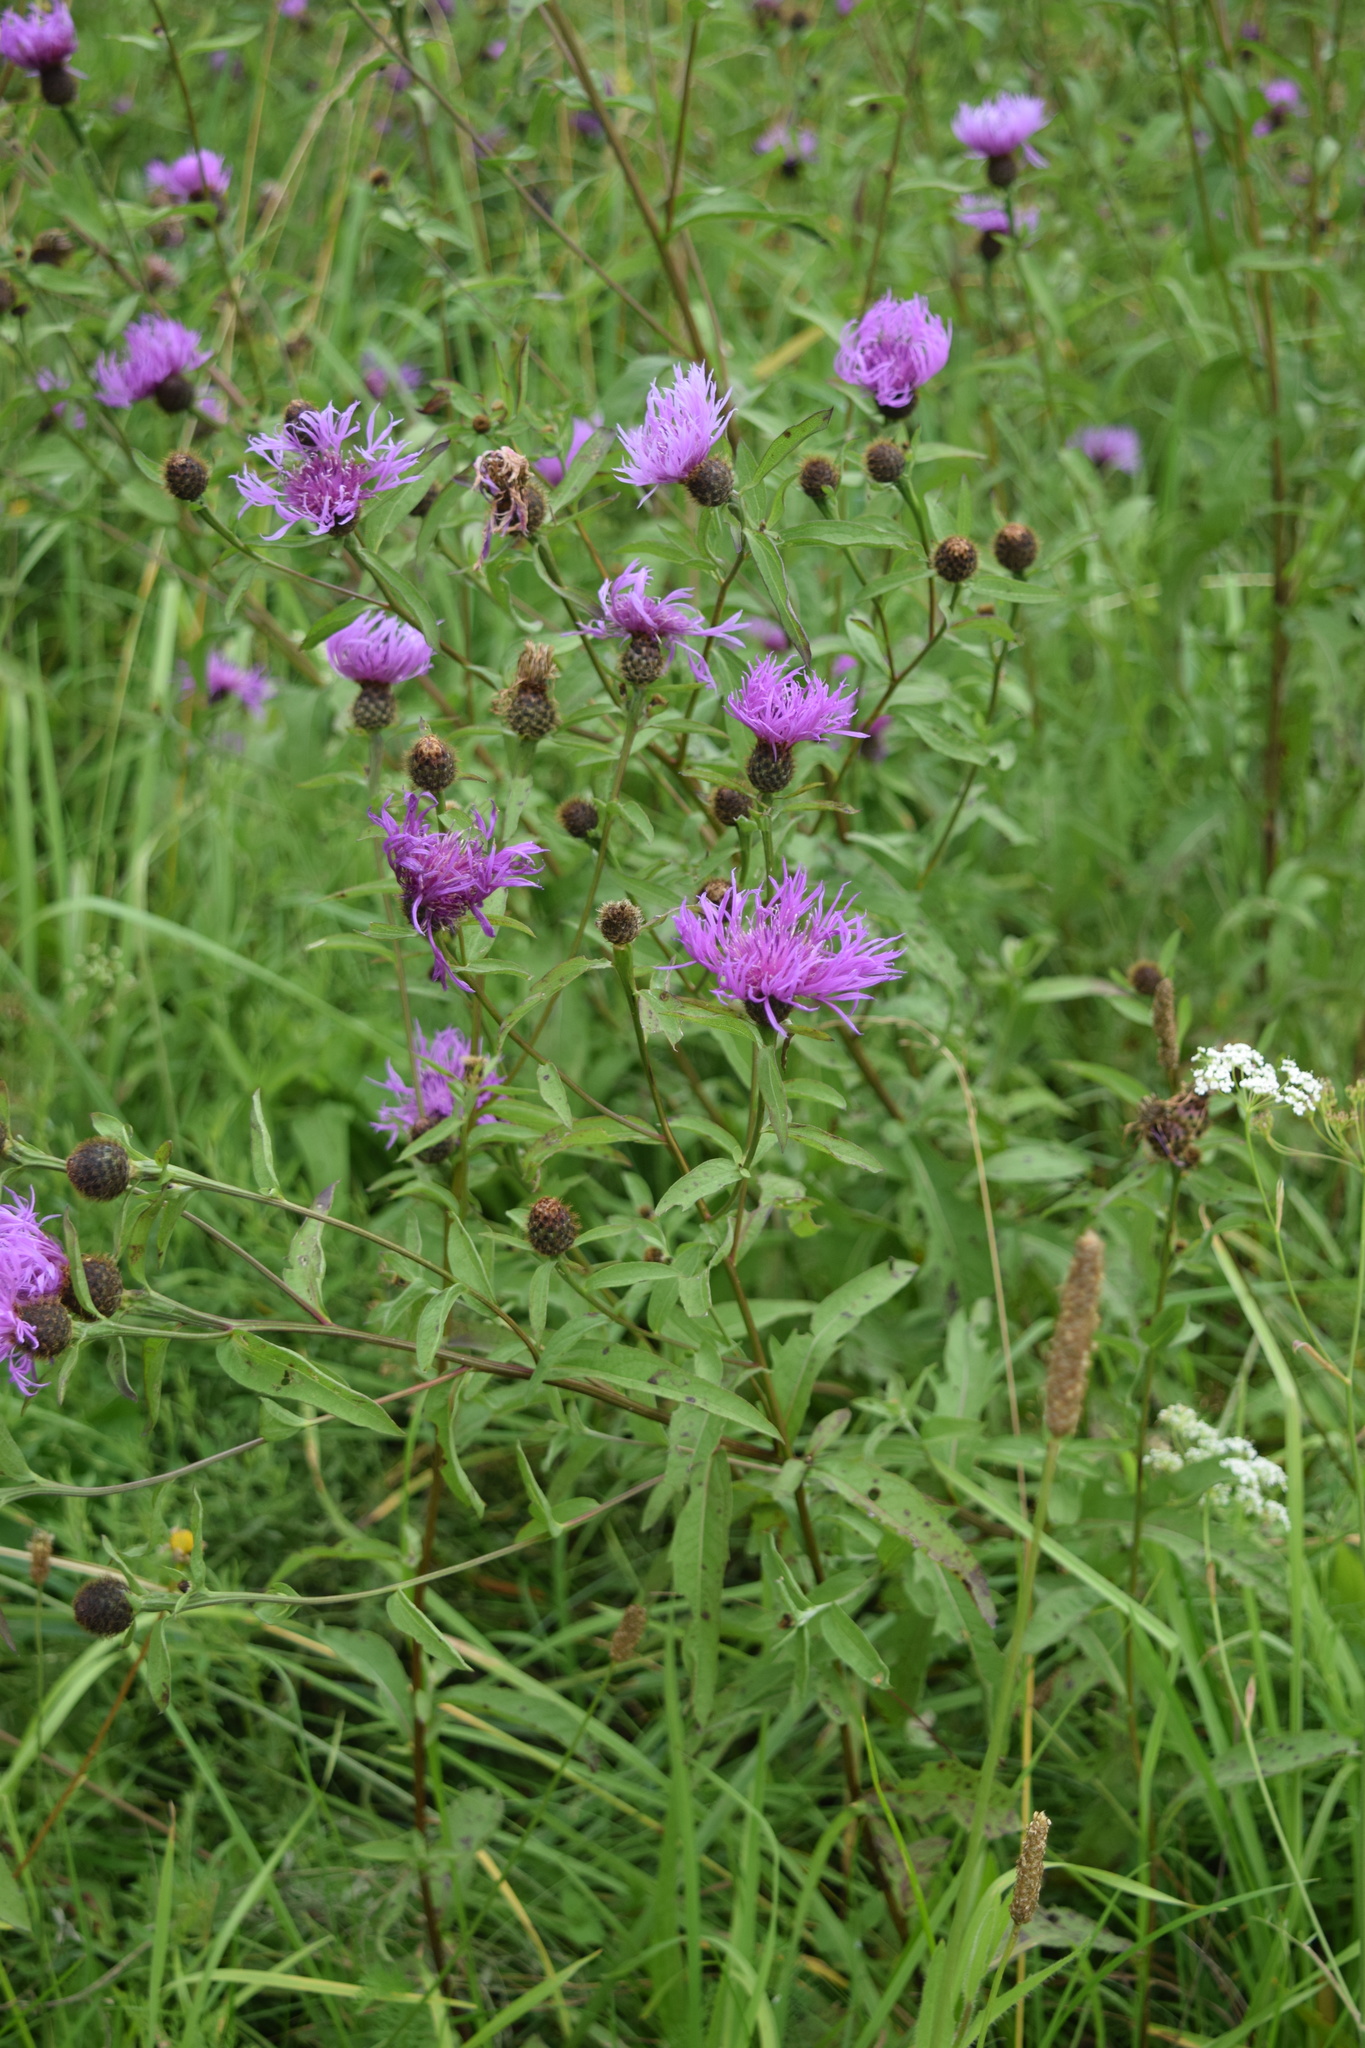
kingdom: Plantae
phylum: Tracheophyta
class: Magnoliopsida
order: Asterales
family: Asteraceae
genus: Centaurea
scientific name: Centaurea phrygia
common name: Wig knapweed
